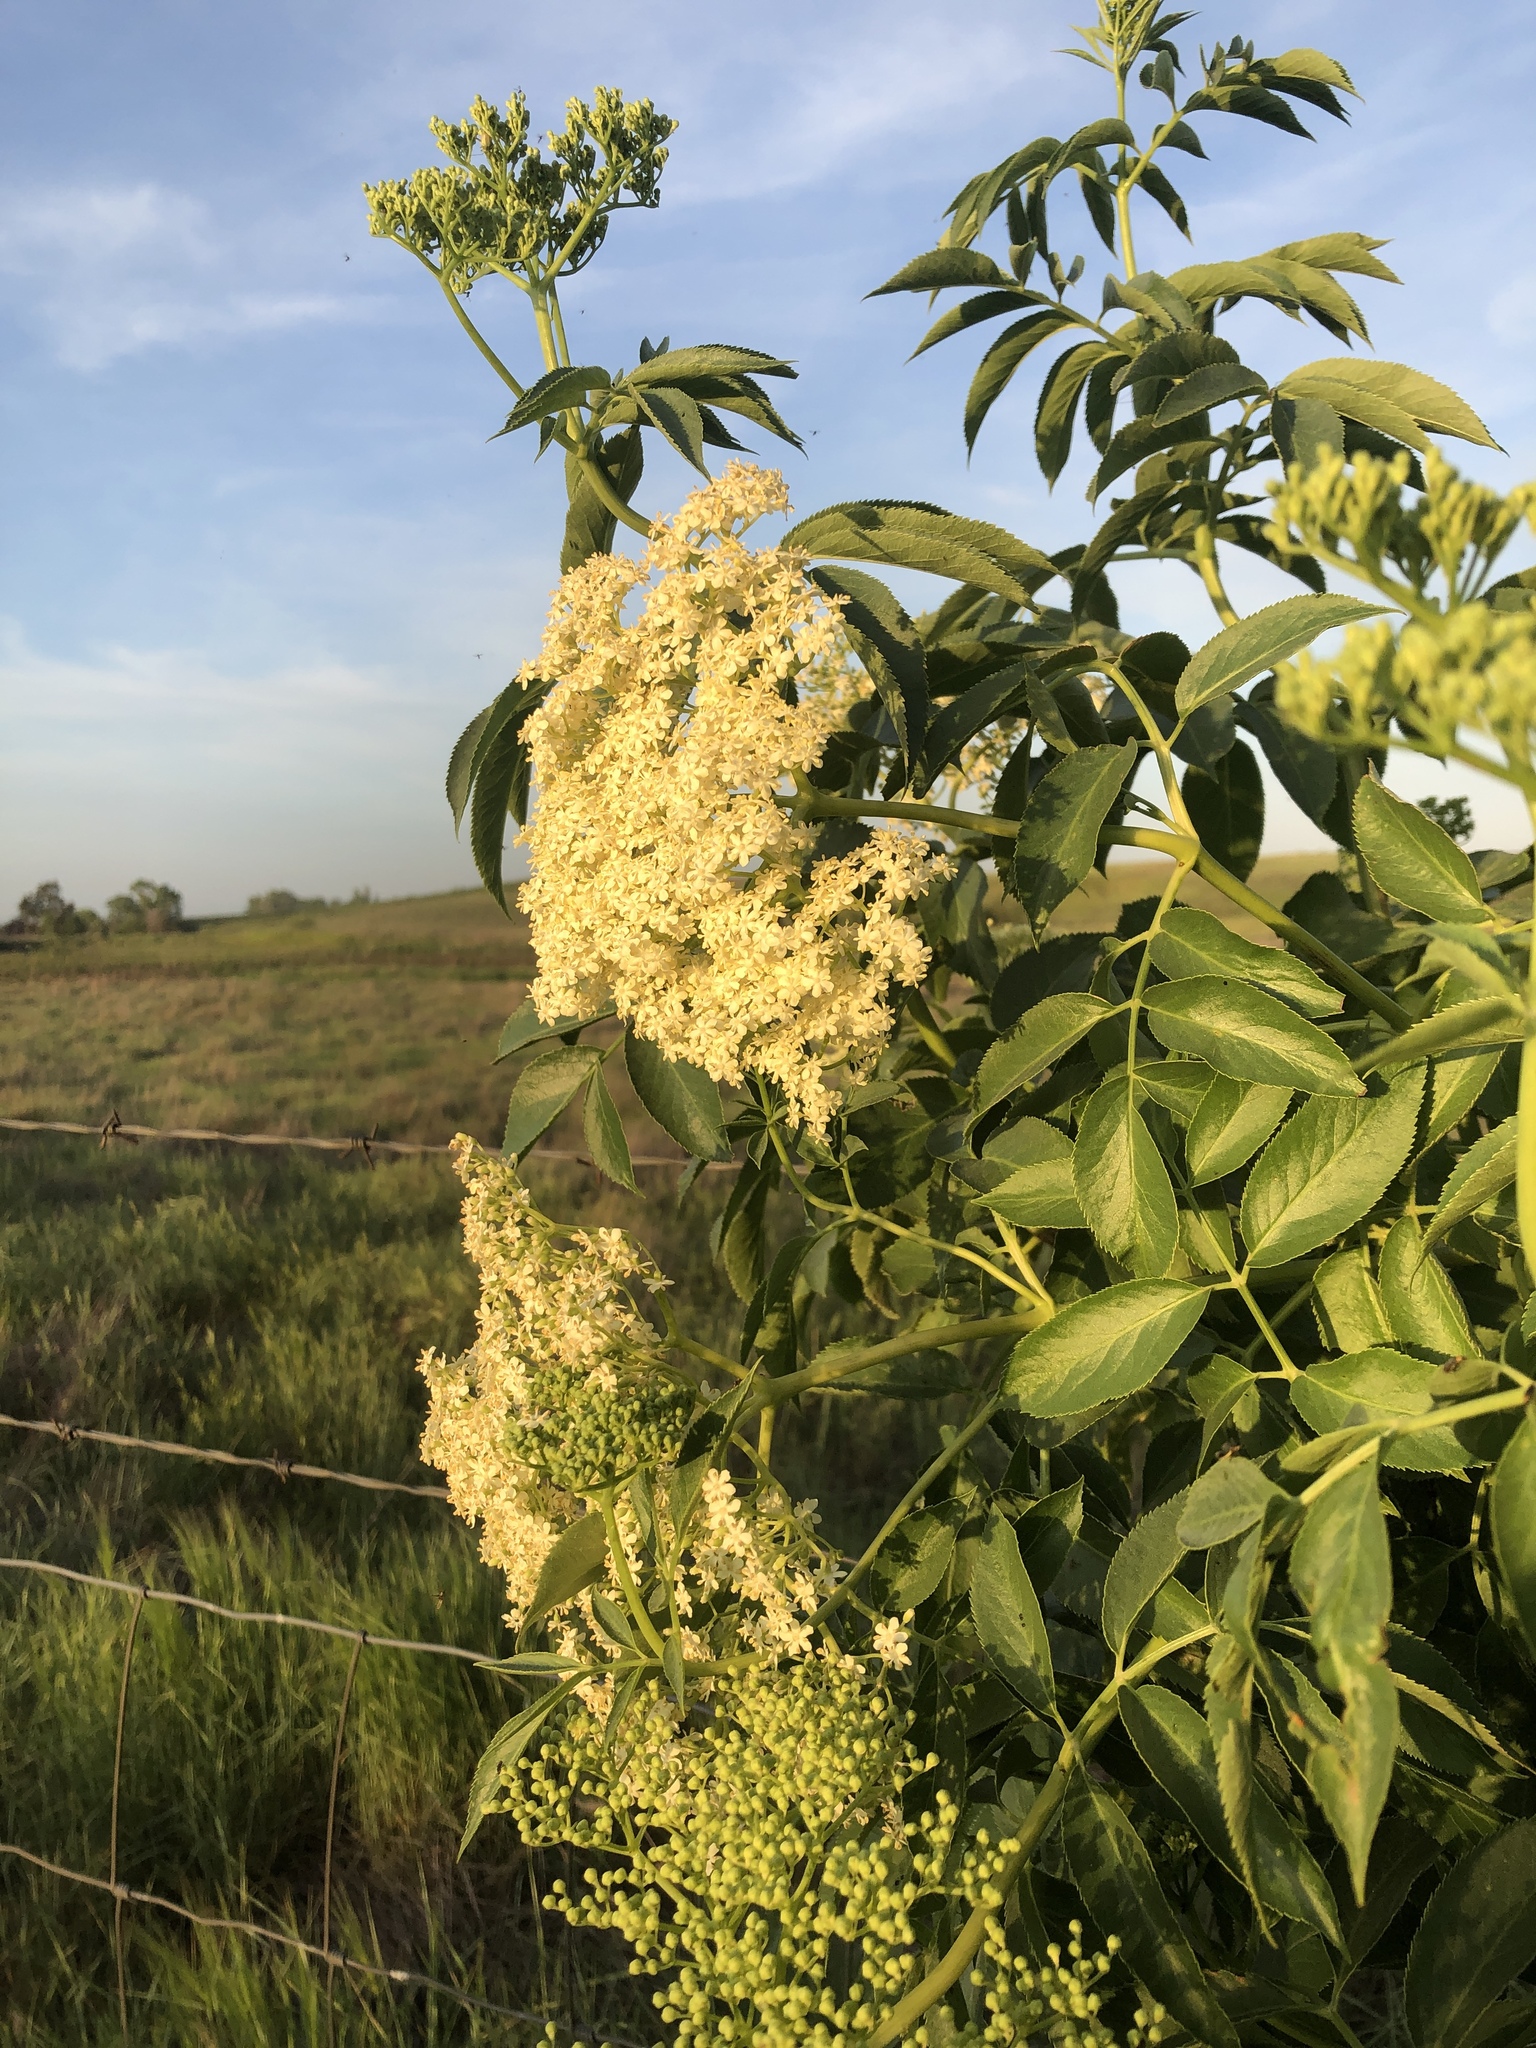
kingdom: Plantae
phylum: Tracheophyta
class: Magnoliopsida
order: Dipsacales
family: Viburnaceae
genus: Sambucus
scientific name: Sambucus cerulea
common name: Blue elder
